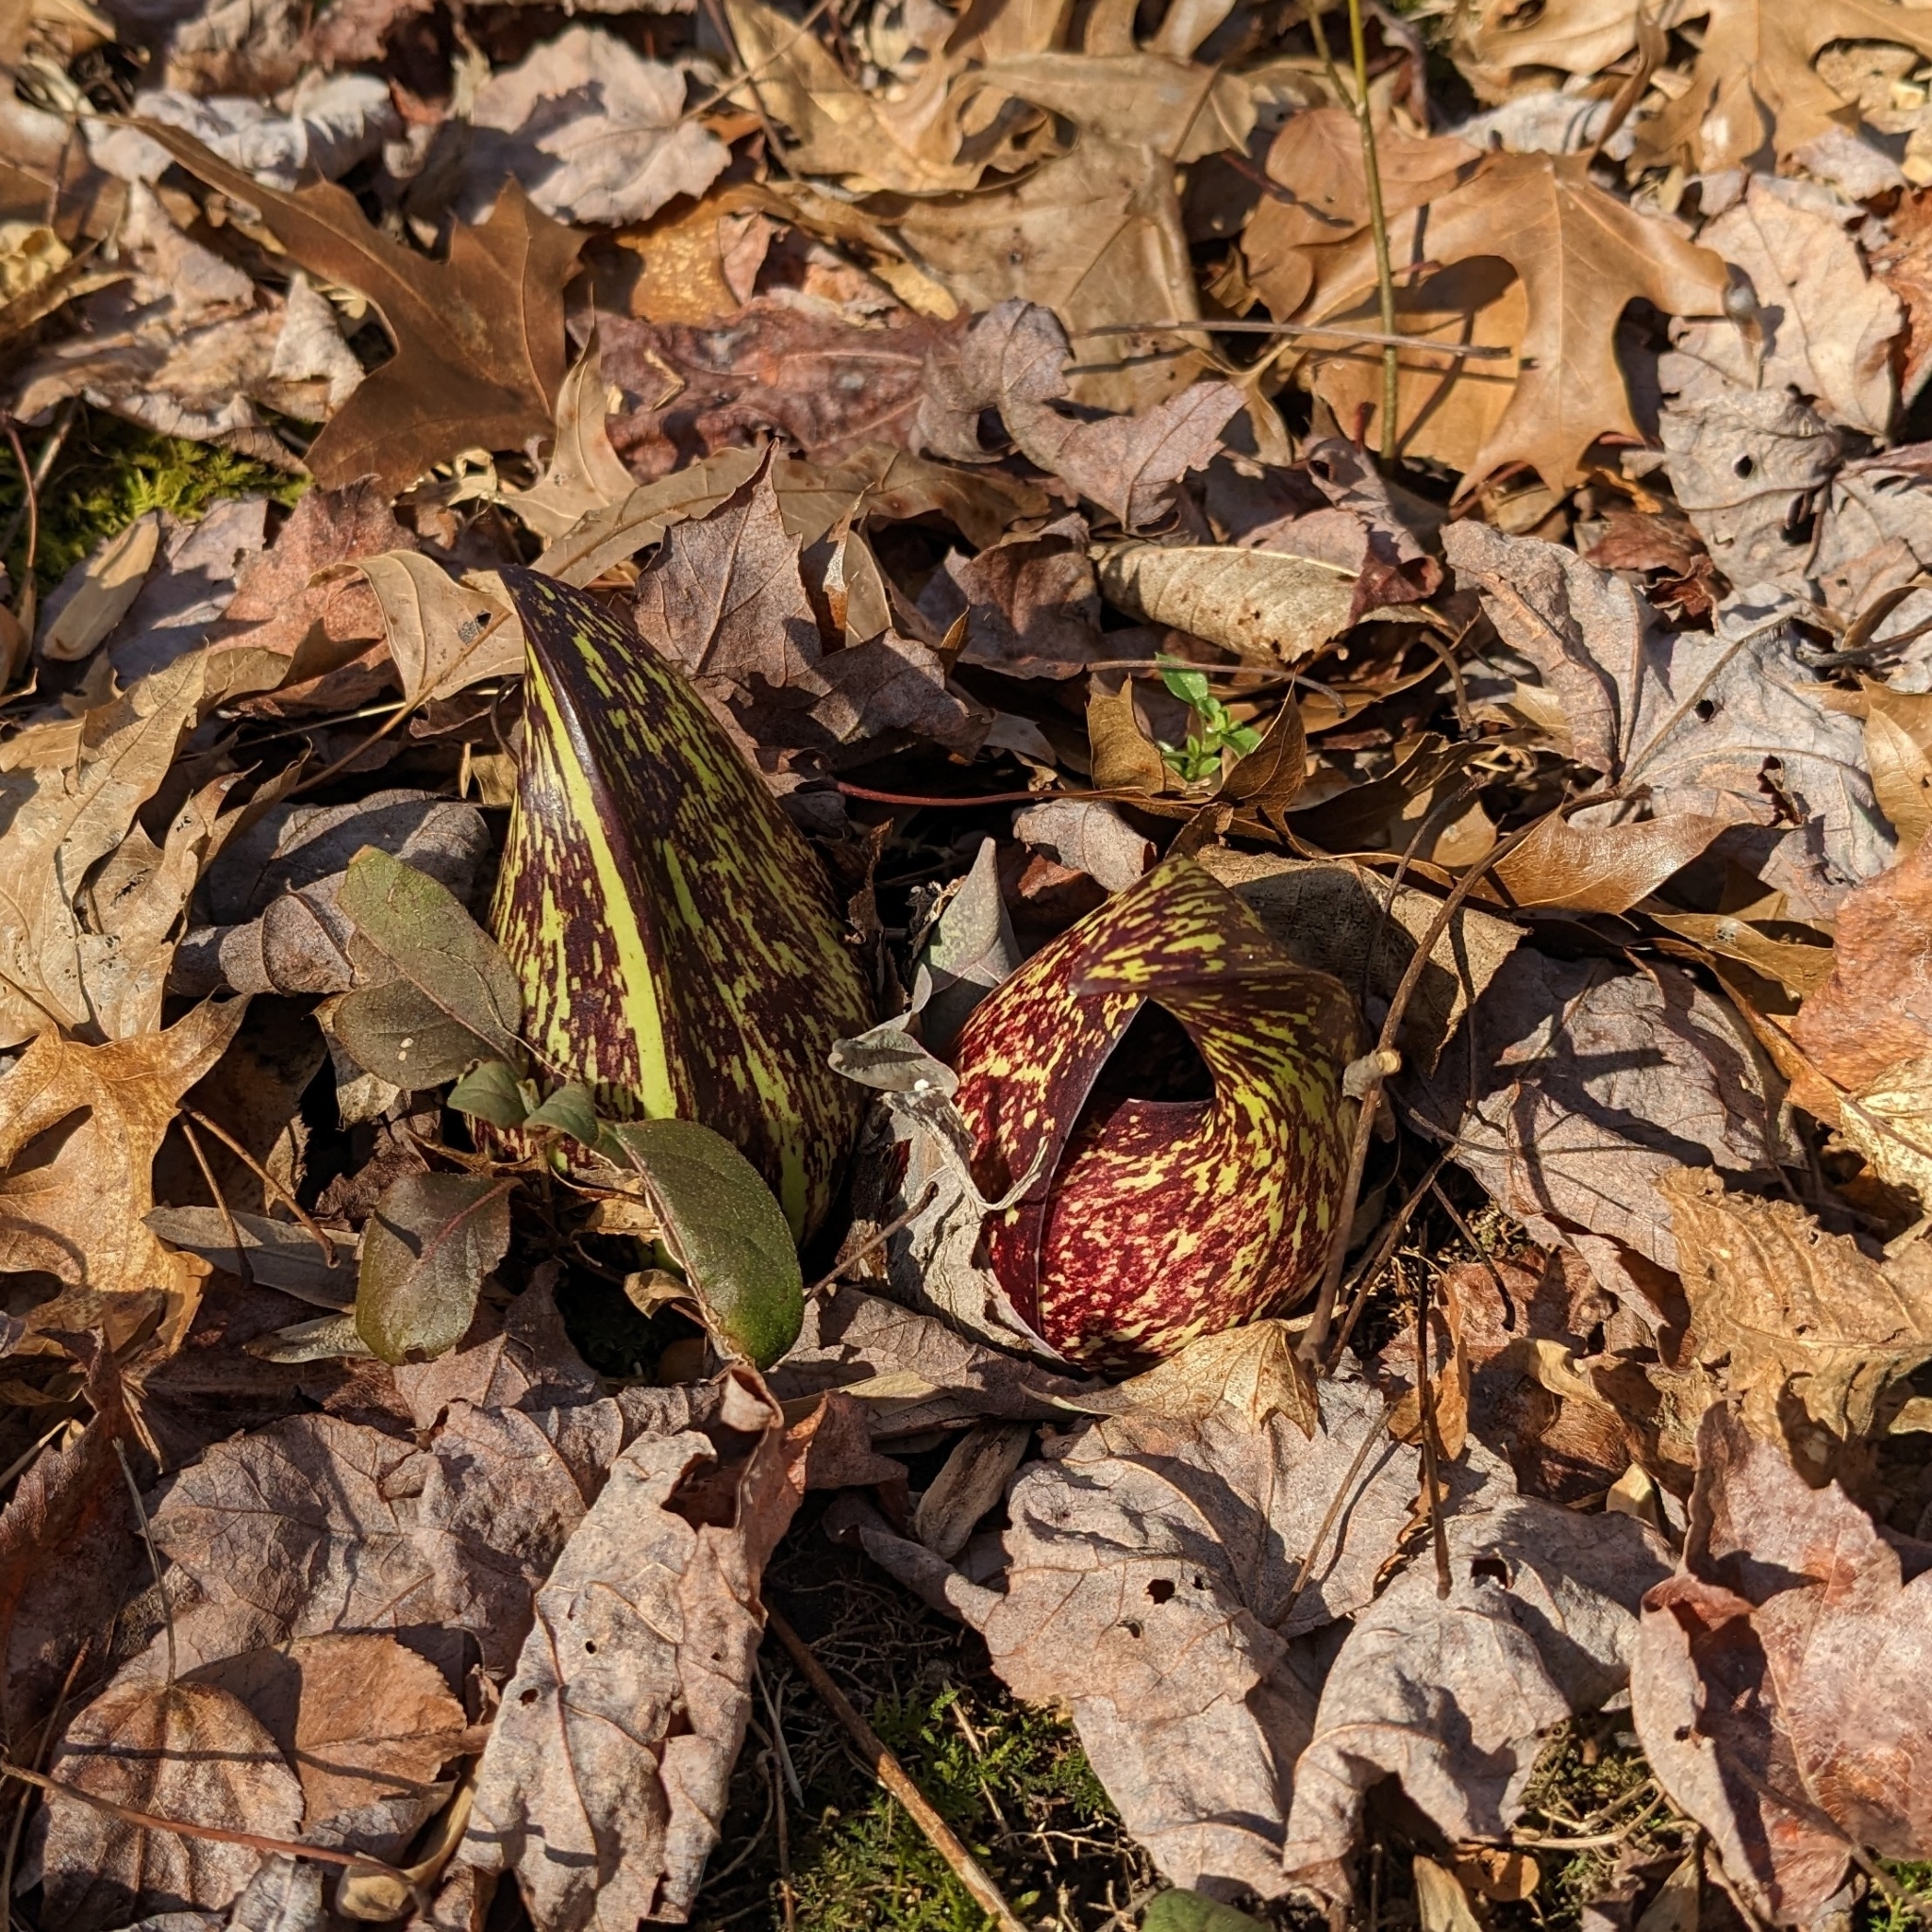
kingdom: Plantae
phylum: Tracheophyta
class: Liliopsida
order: Alismatales
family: Araceae
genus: Symplocarpus
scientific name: Symplocarpus foetidus
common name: Eastern skunk cabbage
